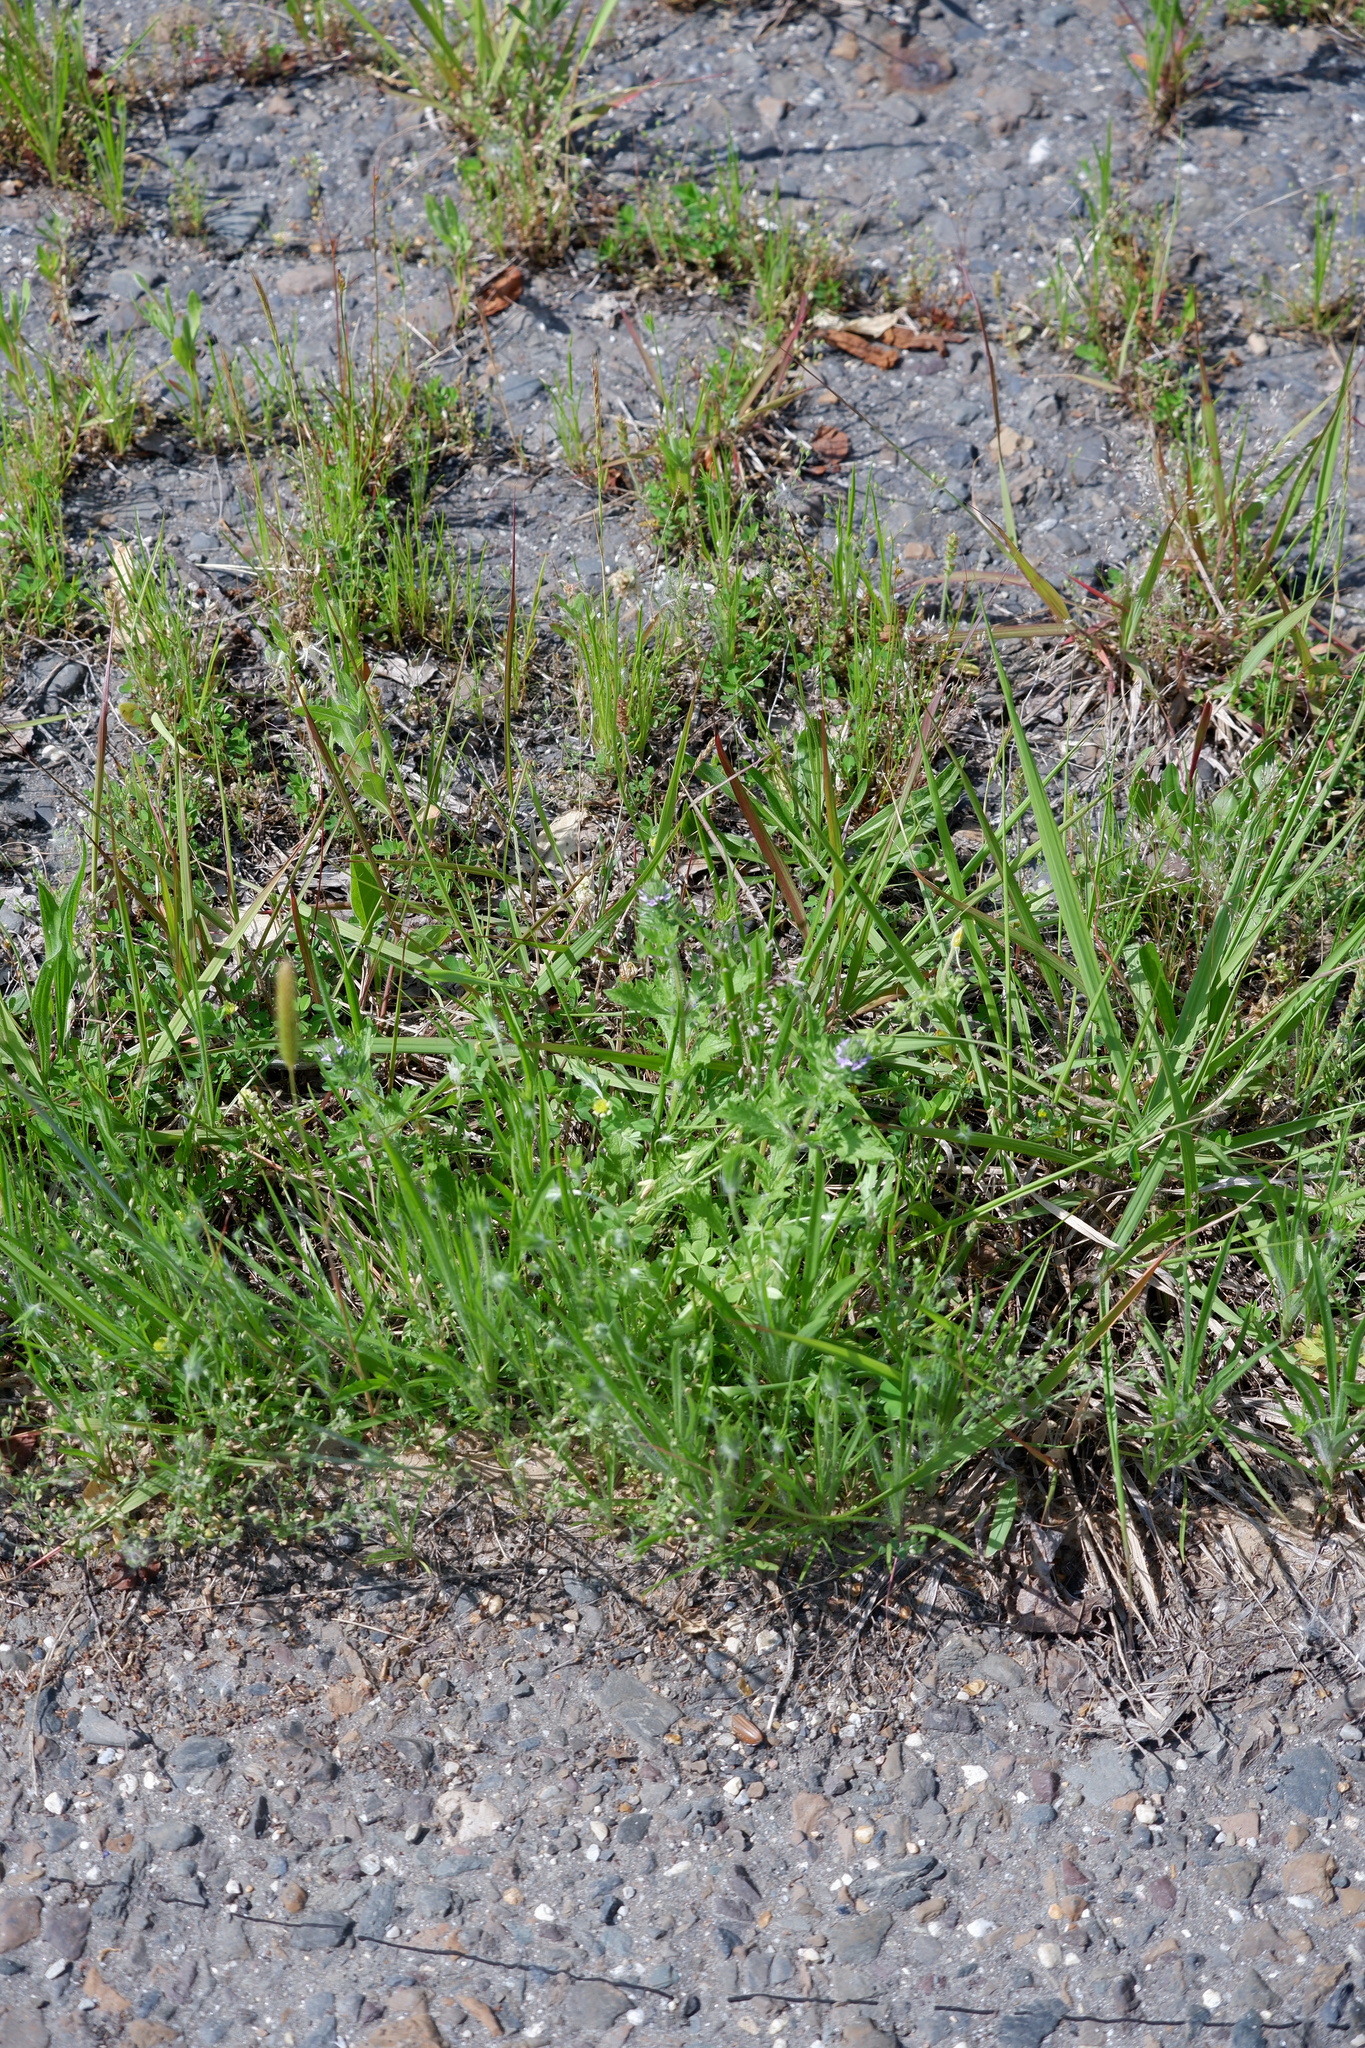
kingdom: Plantae
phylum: Tracheophyta
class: Magnoliopsida
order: Lamiales
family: Verbenaceae
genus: Verbena
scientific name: Verbena bracteata
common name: Bracted vervain
